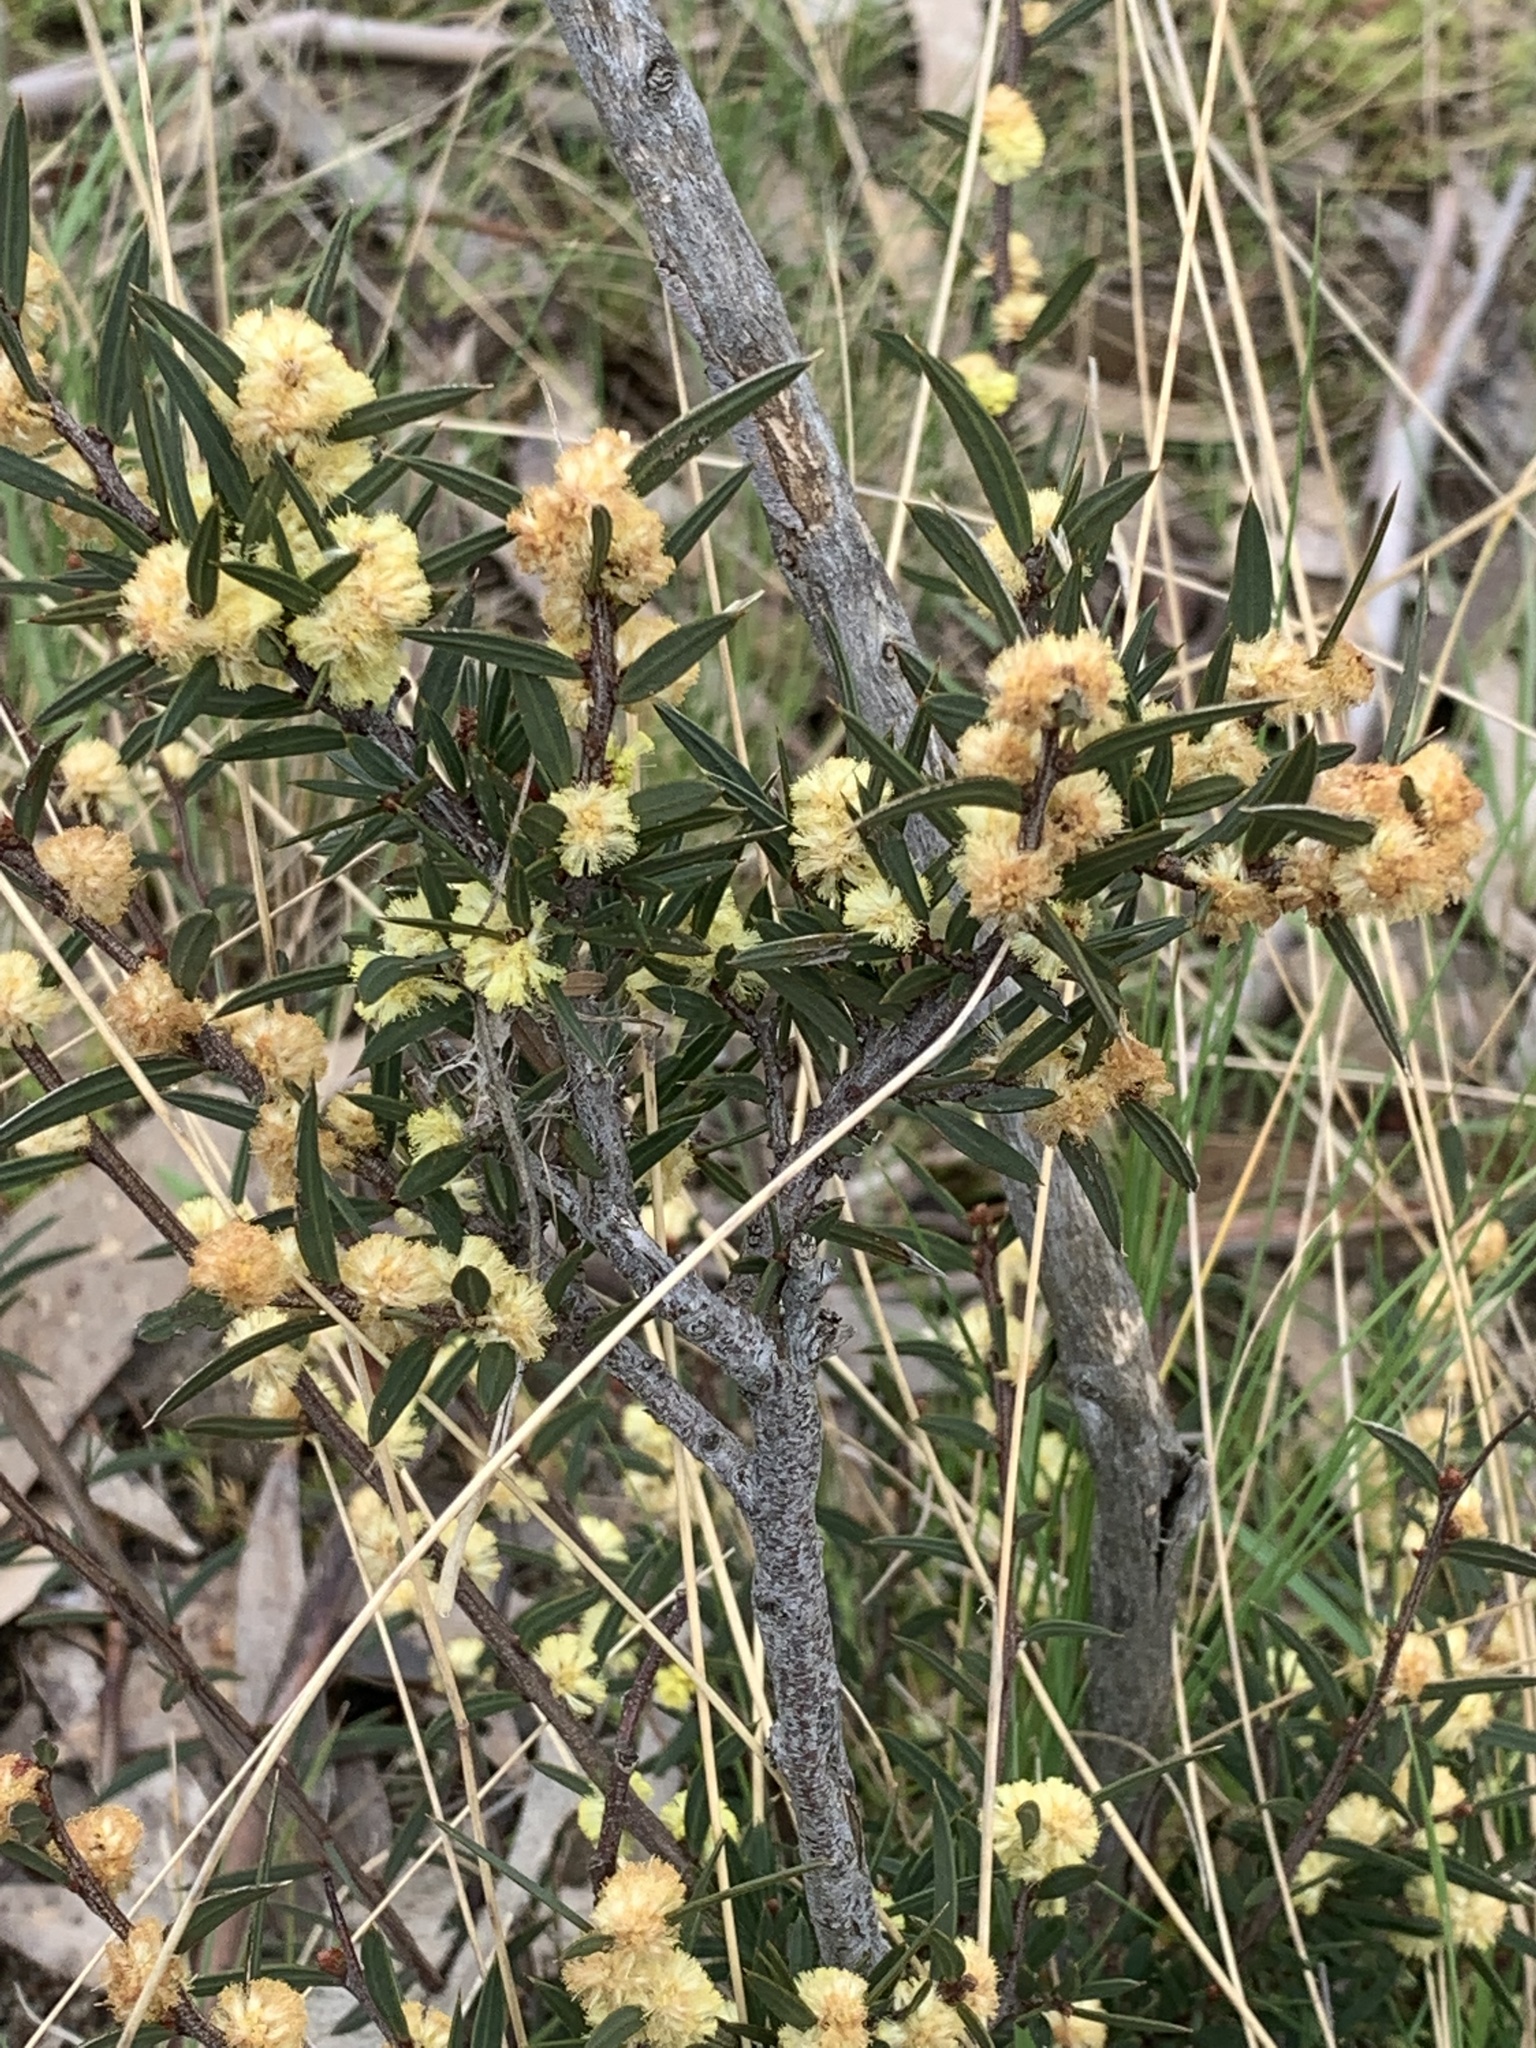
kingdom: Plantae
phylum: Tracheophyta
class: Magnoliopsida
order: Fabales
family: Fabaceae
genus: Acacia
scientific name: Acacia siculiformis
